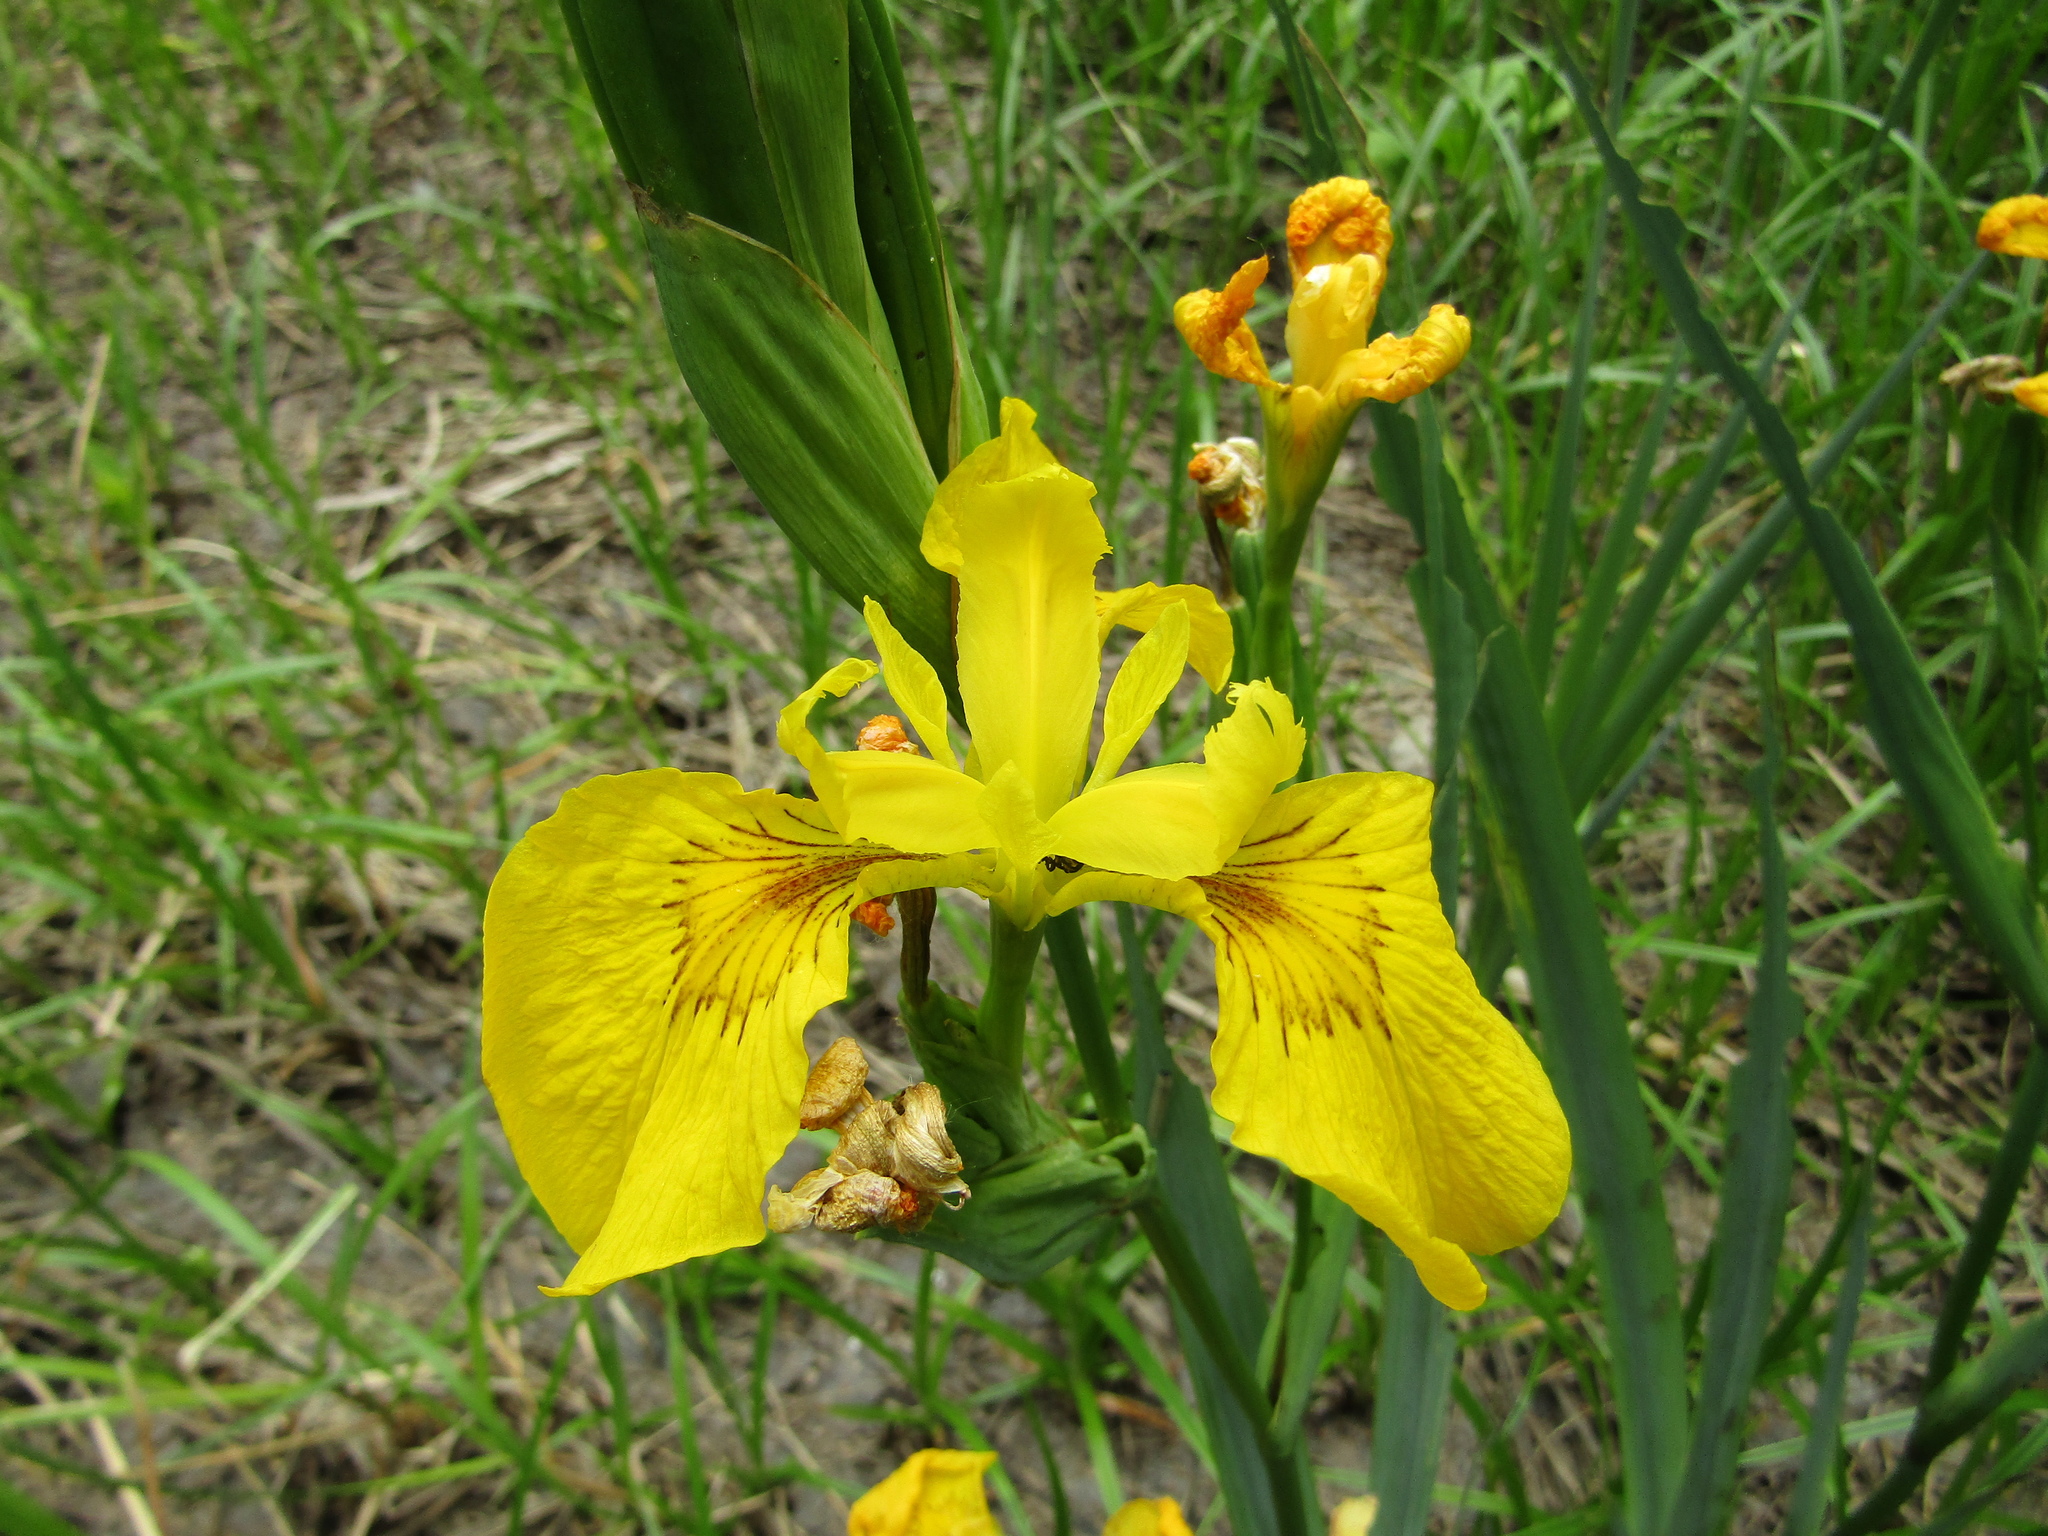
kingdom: Plantae
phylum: Tracheophyta
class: Liliopsida
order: Asparagales
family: Iridaceae
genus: Iris
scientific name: Iris pseudacorus
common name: Yellow flag
